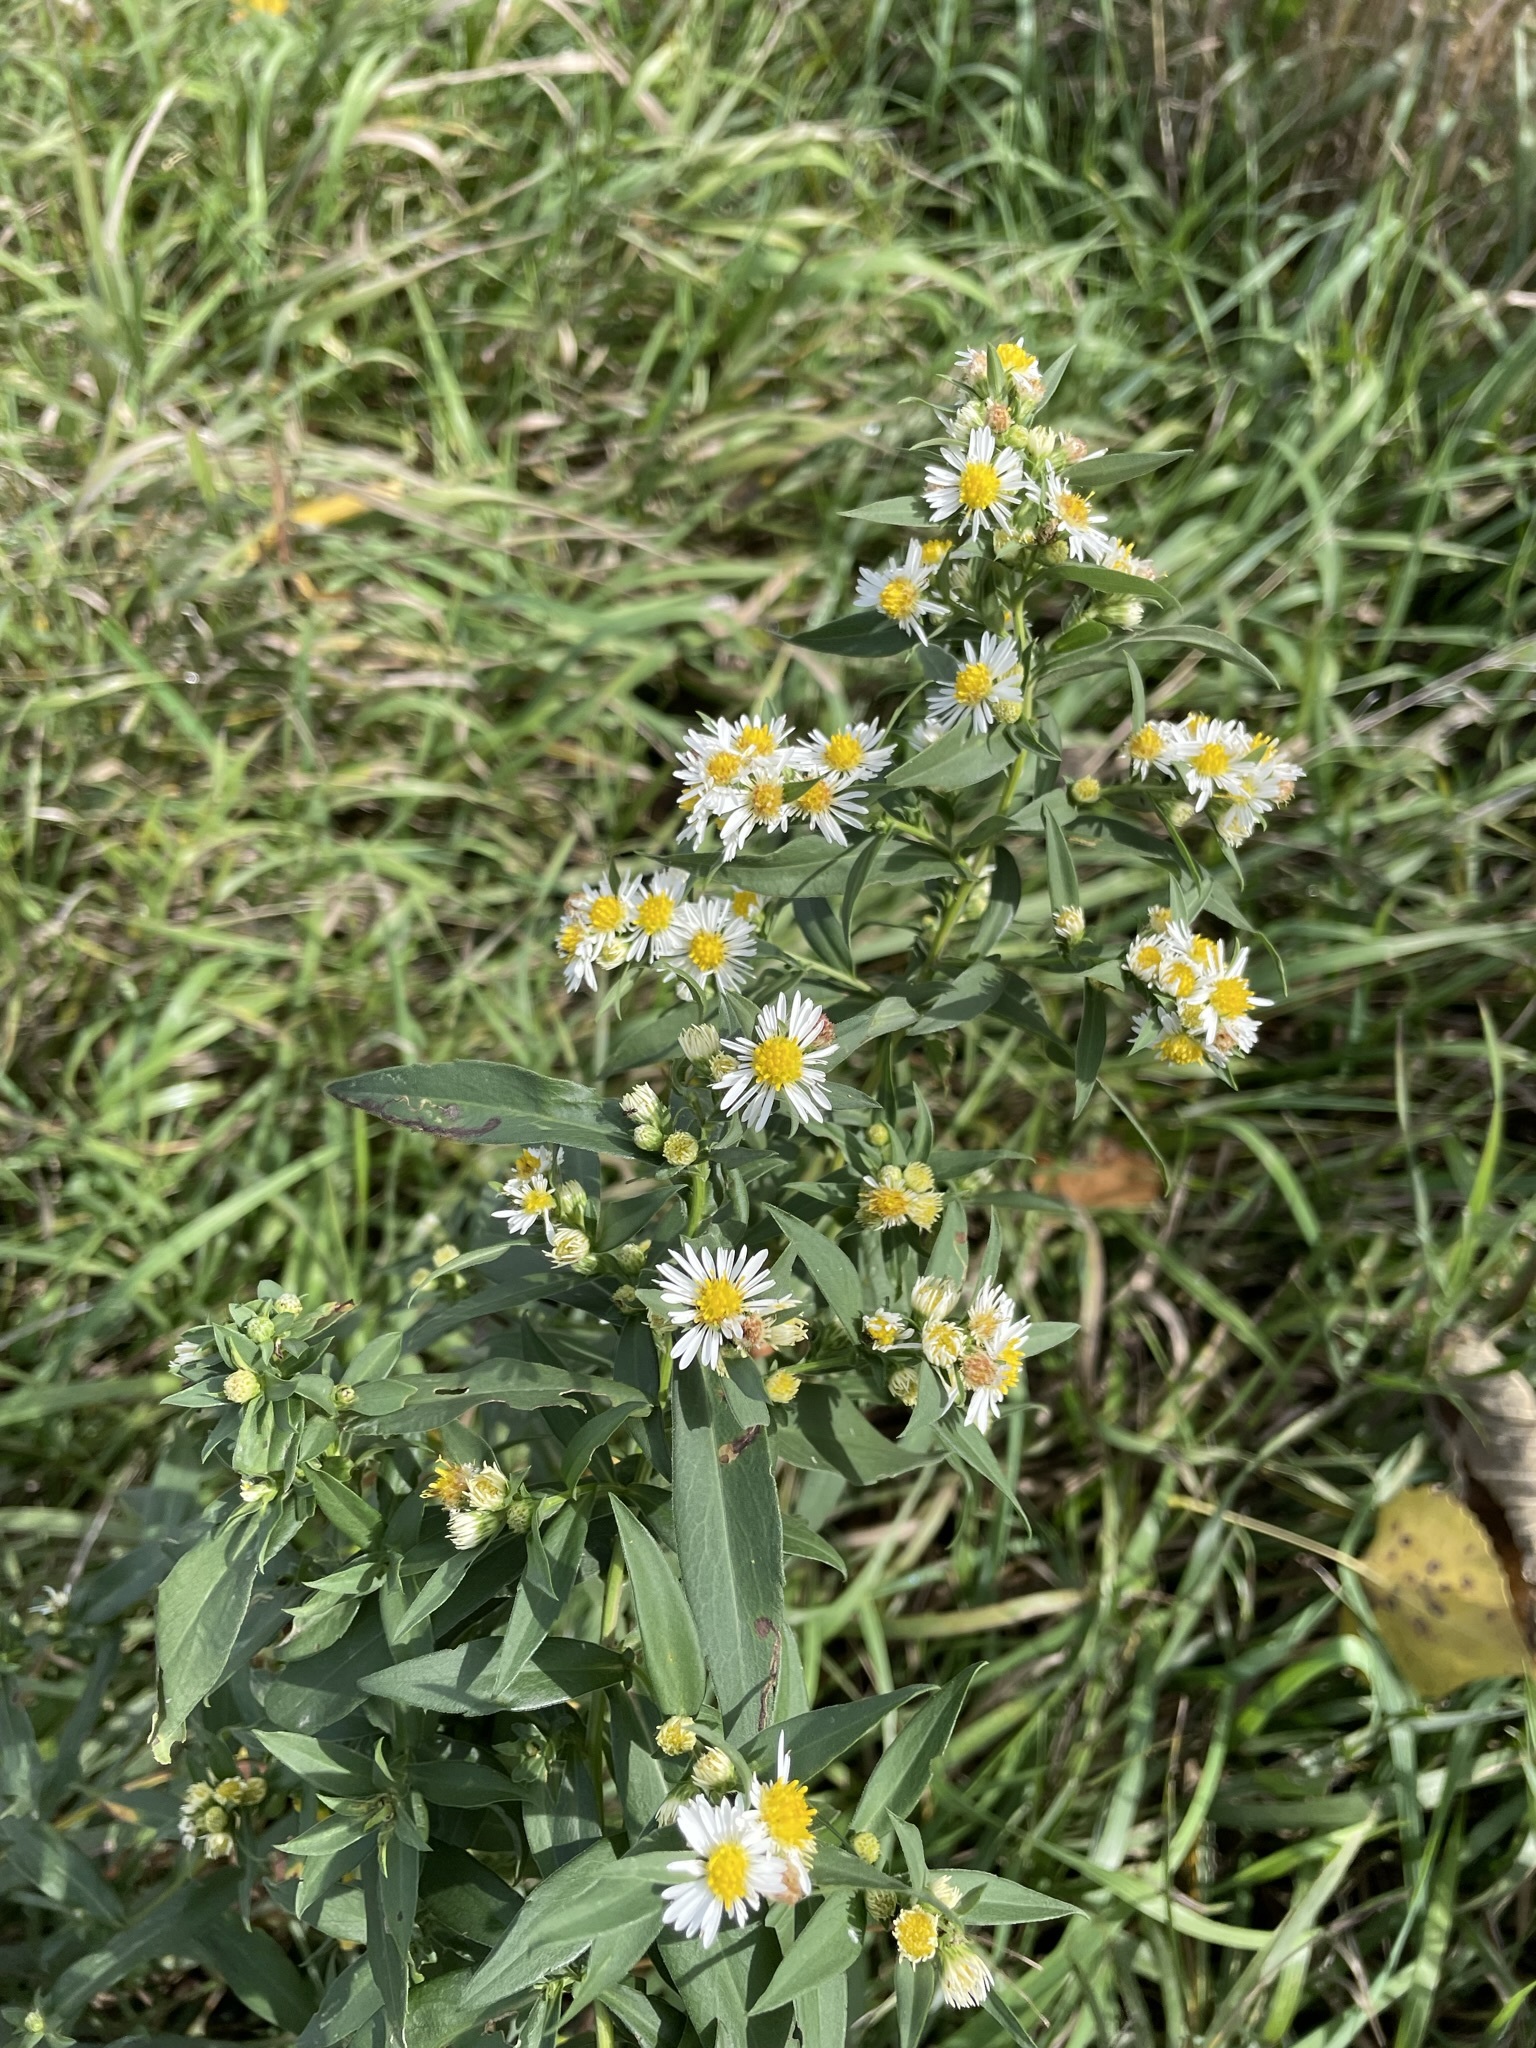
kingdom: Plantae
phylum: Tracheophyta
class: Magnoliopsida
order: Asterales
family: Asteraceae
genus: Symphyotrichum
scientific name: Symphyotrichum lanceolatum
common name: Panicled aster
